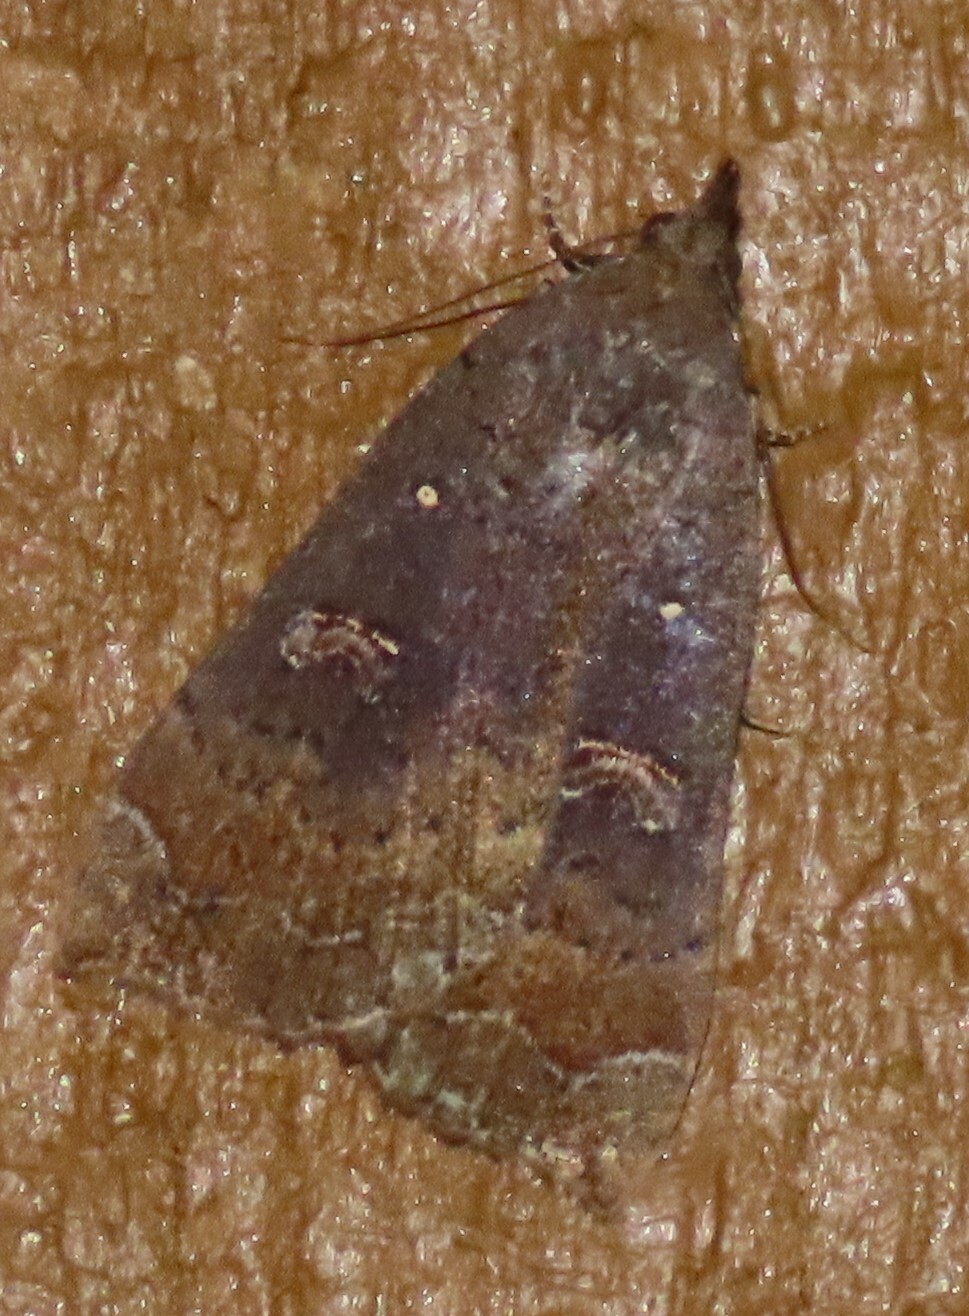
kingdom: Animalia
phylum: Arthropoda
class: Insecta
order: Lepidoptera
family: Erebidae
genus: Rhapsa
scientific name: Rhapsa scotosialis
